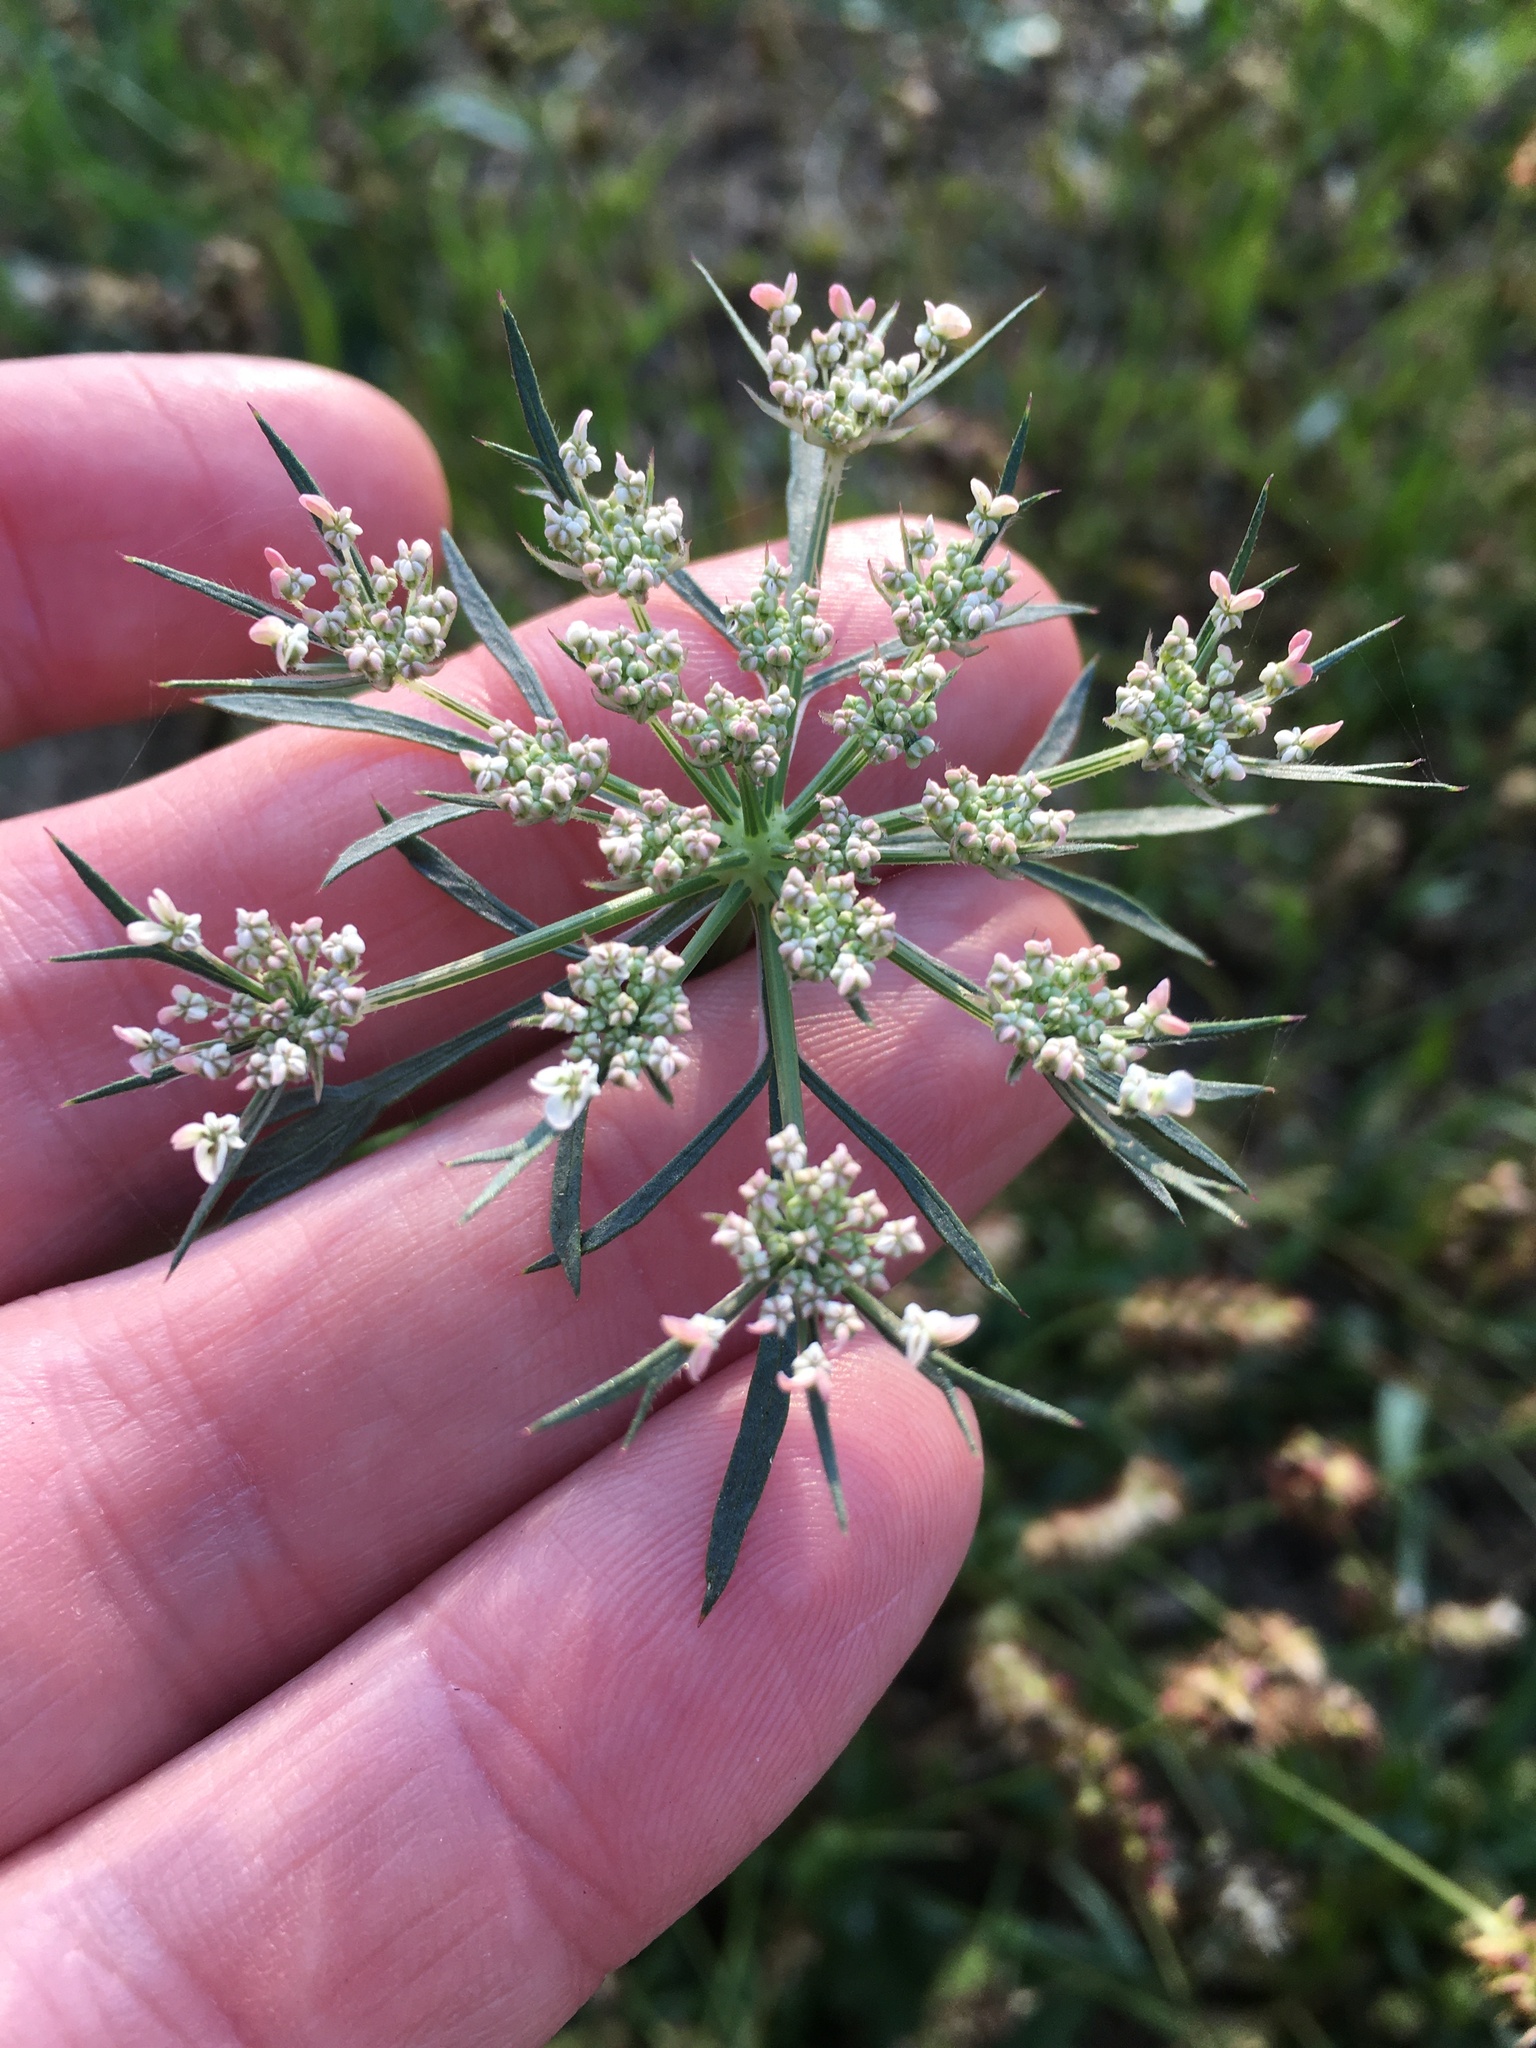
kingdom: Plantae
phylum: Tracheophyta
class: Magnoliopsida
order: Apiales
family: Apiaceae
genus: Daucus
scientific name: Daucus carota
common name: Wild carrot
